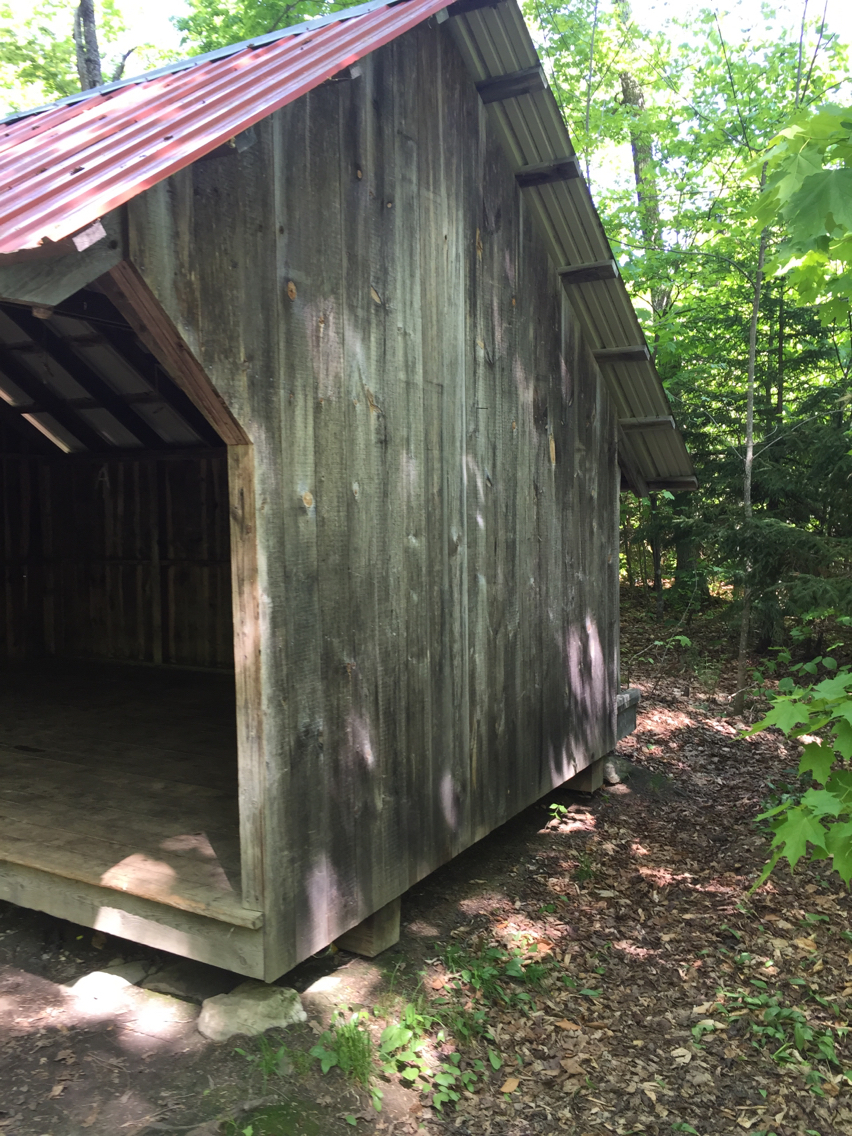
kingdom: Plantae
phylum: Tracheophyta
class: Magnoliopsida
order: Sapindales
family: Sapindaceae
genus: Acer
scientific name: Acer saccharum
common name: Sugar maple
